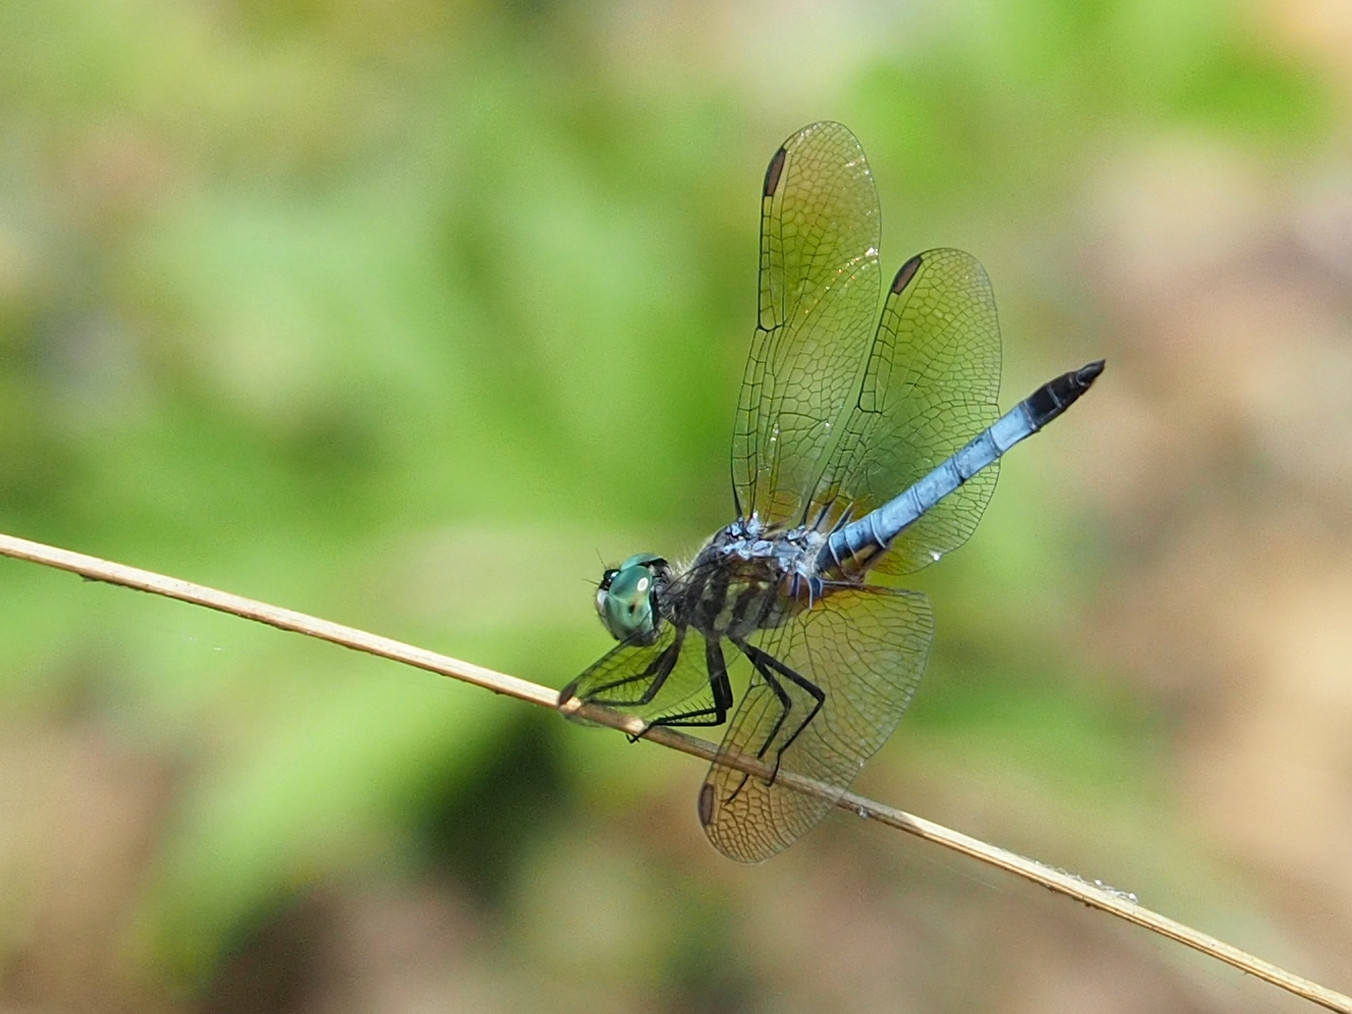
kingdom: Animalia
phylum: Arthropoda
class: Insecta
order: Odonata
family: Libellulidae
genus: Pachydiplax
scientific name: Pachydiplax longipennis
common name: Blue dasher
